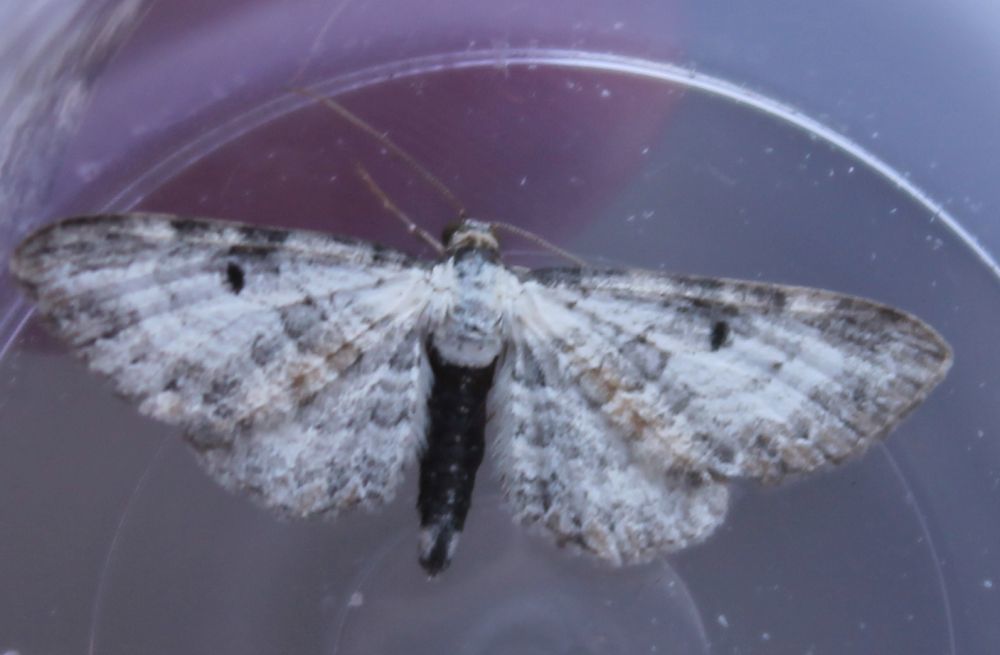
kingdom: Animalia
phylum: Arthropoda
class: Insecta
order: Lepidoptera
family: Geometridae
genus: Eupithecia
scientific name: Eupithecia succenturiata
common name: Bordered pug
